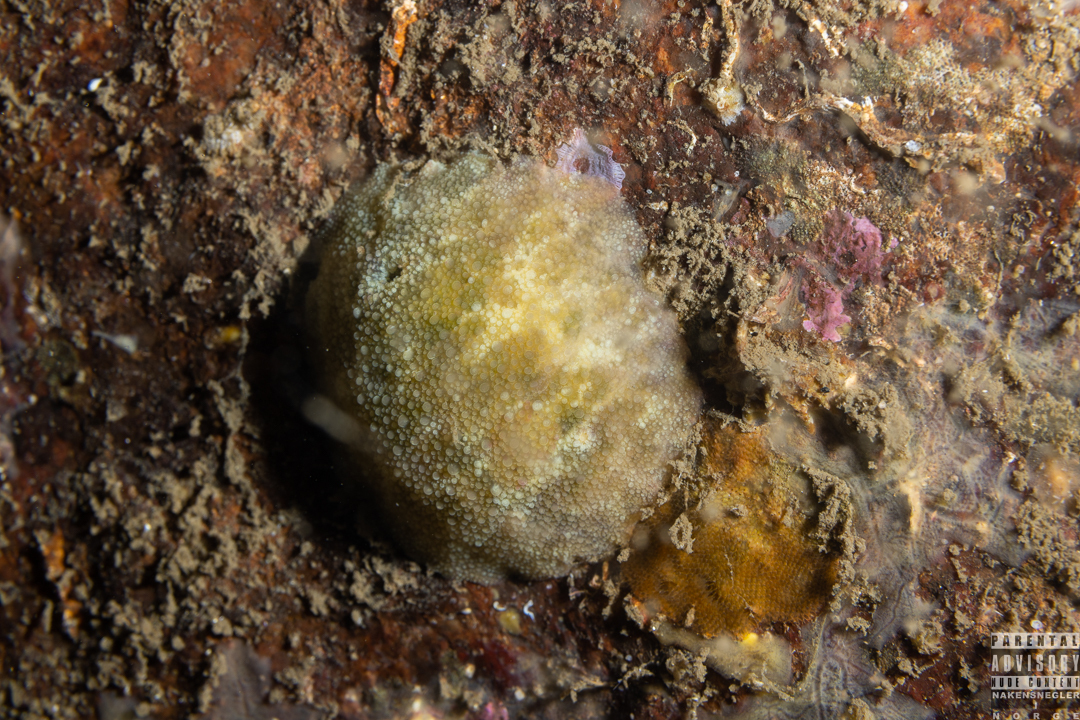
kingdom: Animalia
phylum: Mollusca
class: Gastropoda
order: Nudibranchia
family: Dorididae
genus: Doris
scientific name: Doris pseudoargus
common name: Sea lemon
